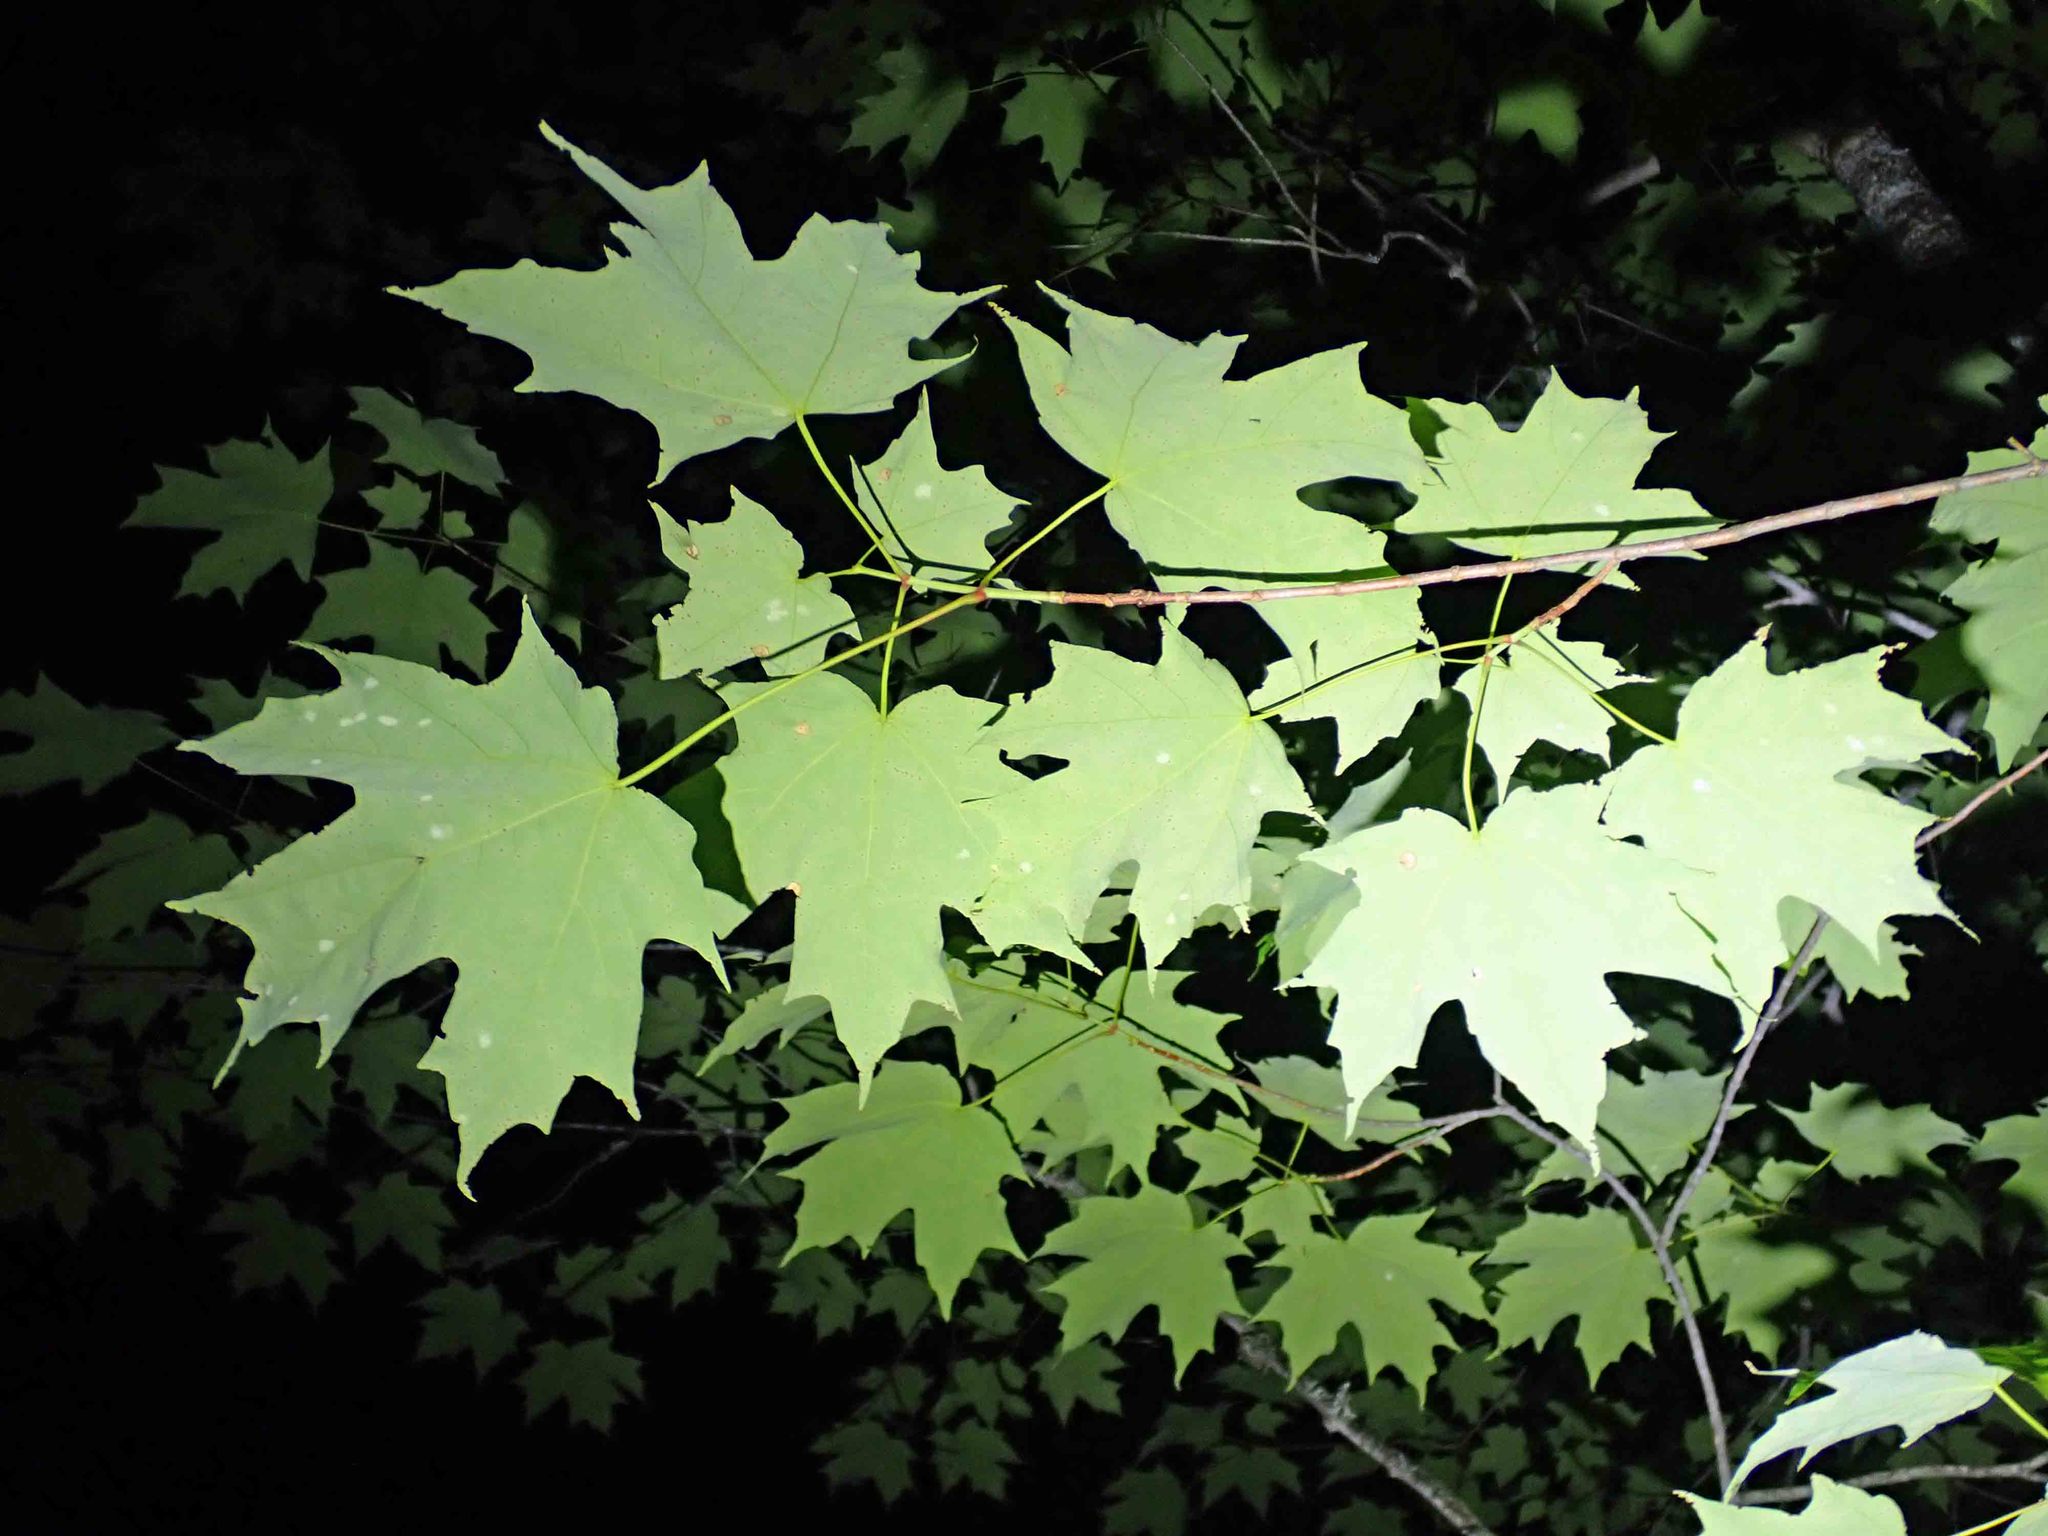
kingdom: Plantae
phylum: Tracheophyta
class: Magnoliopsida
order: Sapindales
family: Sapindaceae
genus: Acer
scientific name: Acer saccharum
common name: Sugar maple
